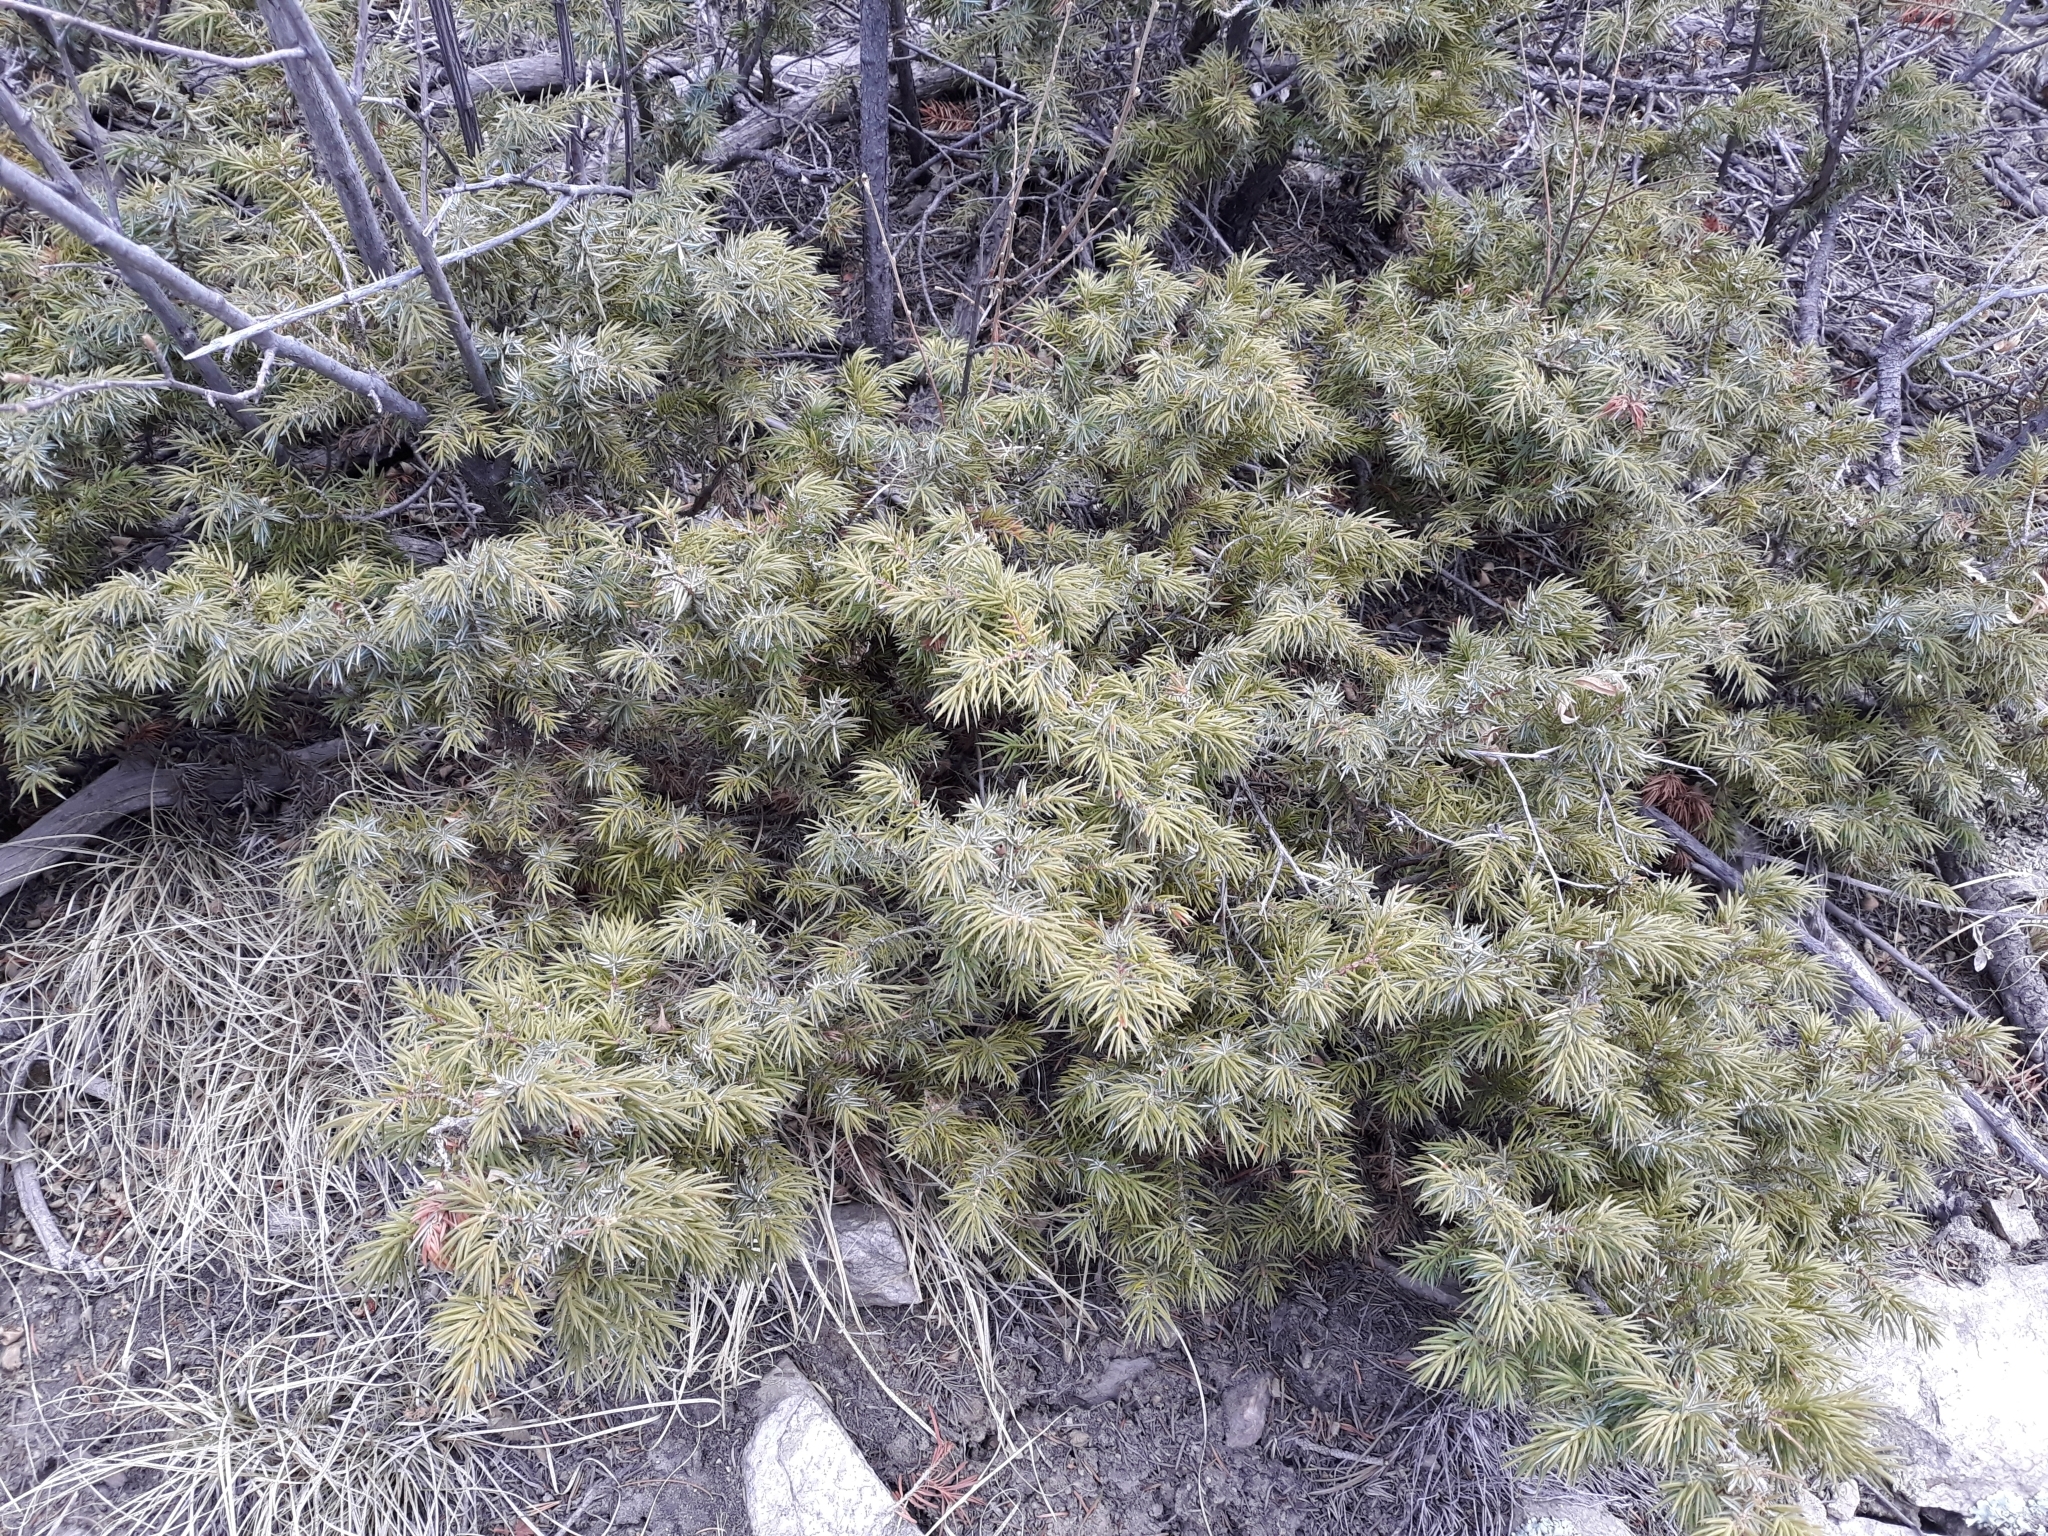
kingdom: Plantae
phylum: Tracheophyta
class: Pinopsida
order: Pinales
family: Cupressaceae
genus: Juniperus
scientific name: Juniperus communis
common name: Common juniper
